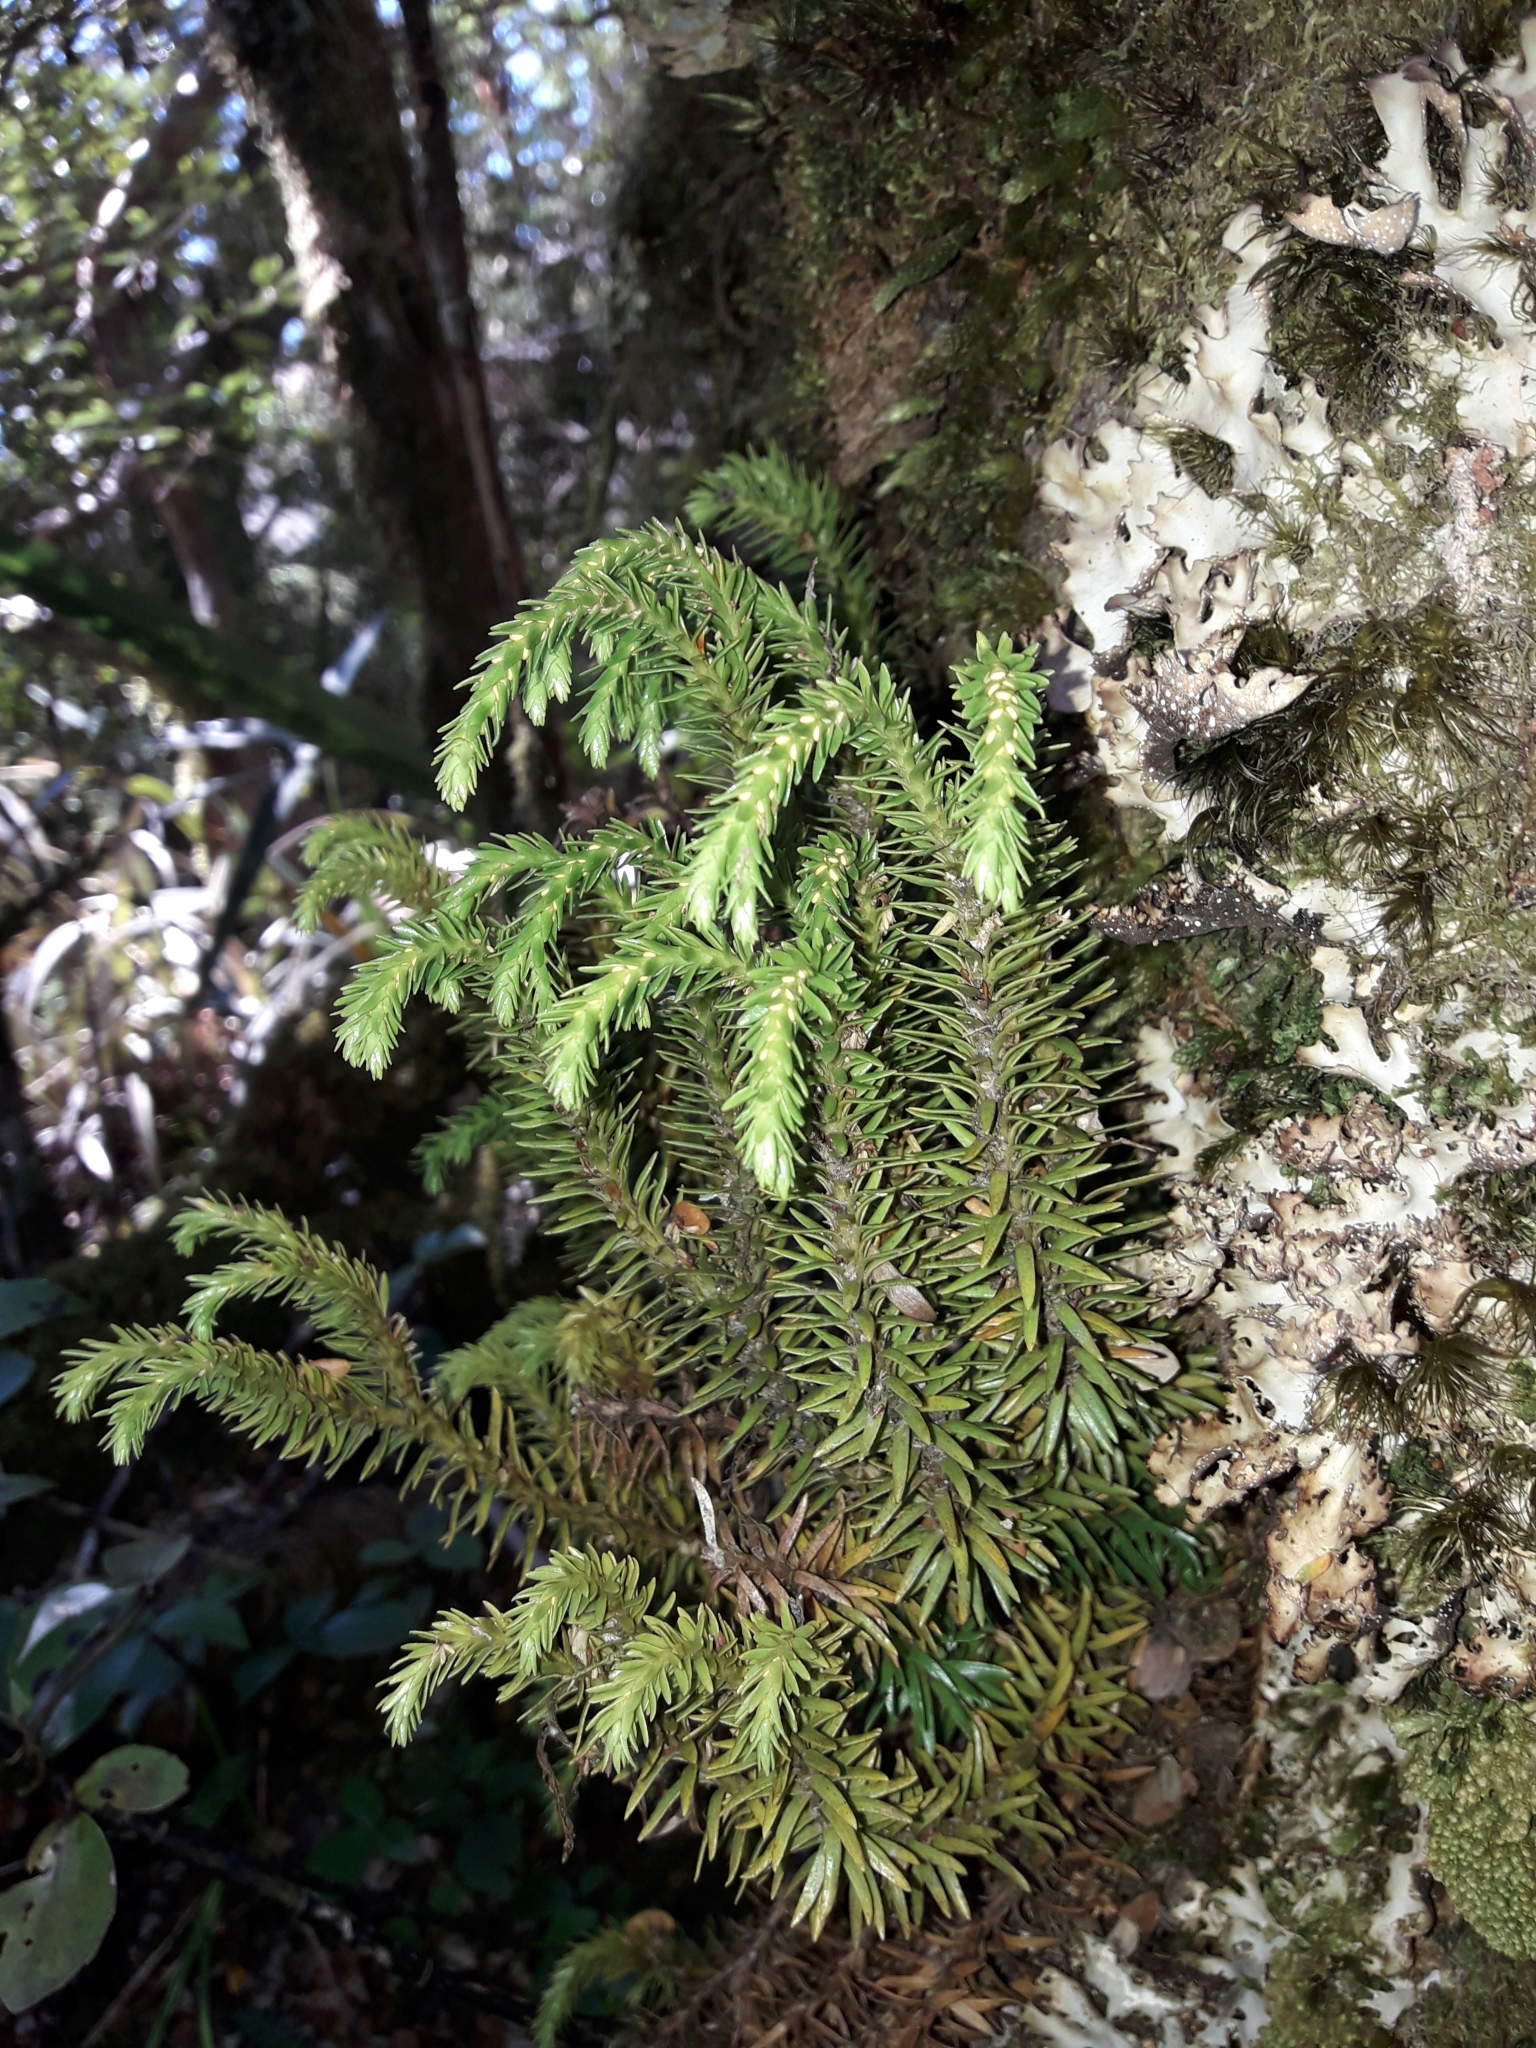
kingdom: Plantae
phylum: Tracheophyta
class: Lycopodiopsida
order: Lycopodiales
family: Lycopodiaceae
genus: Phlegmariurus
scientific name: Phlegmariurus varius
